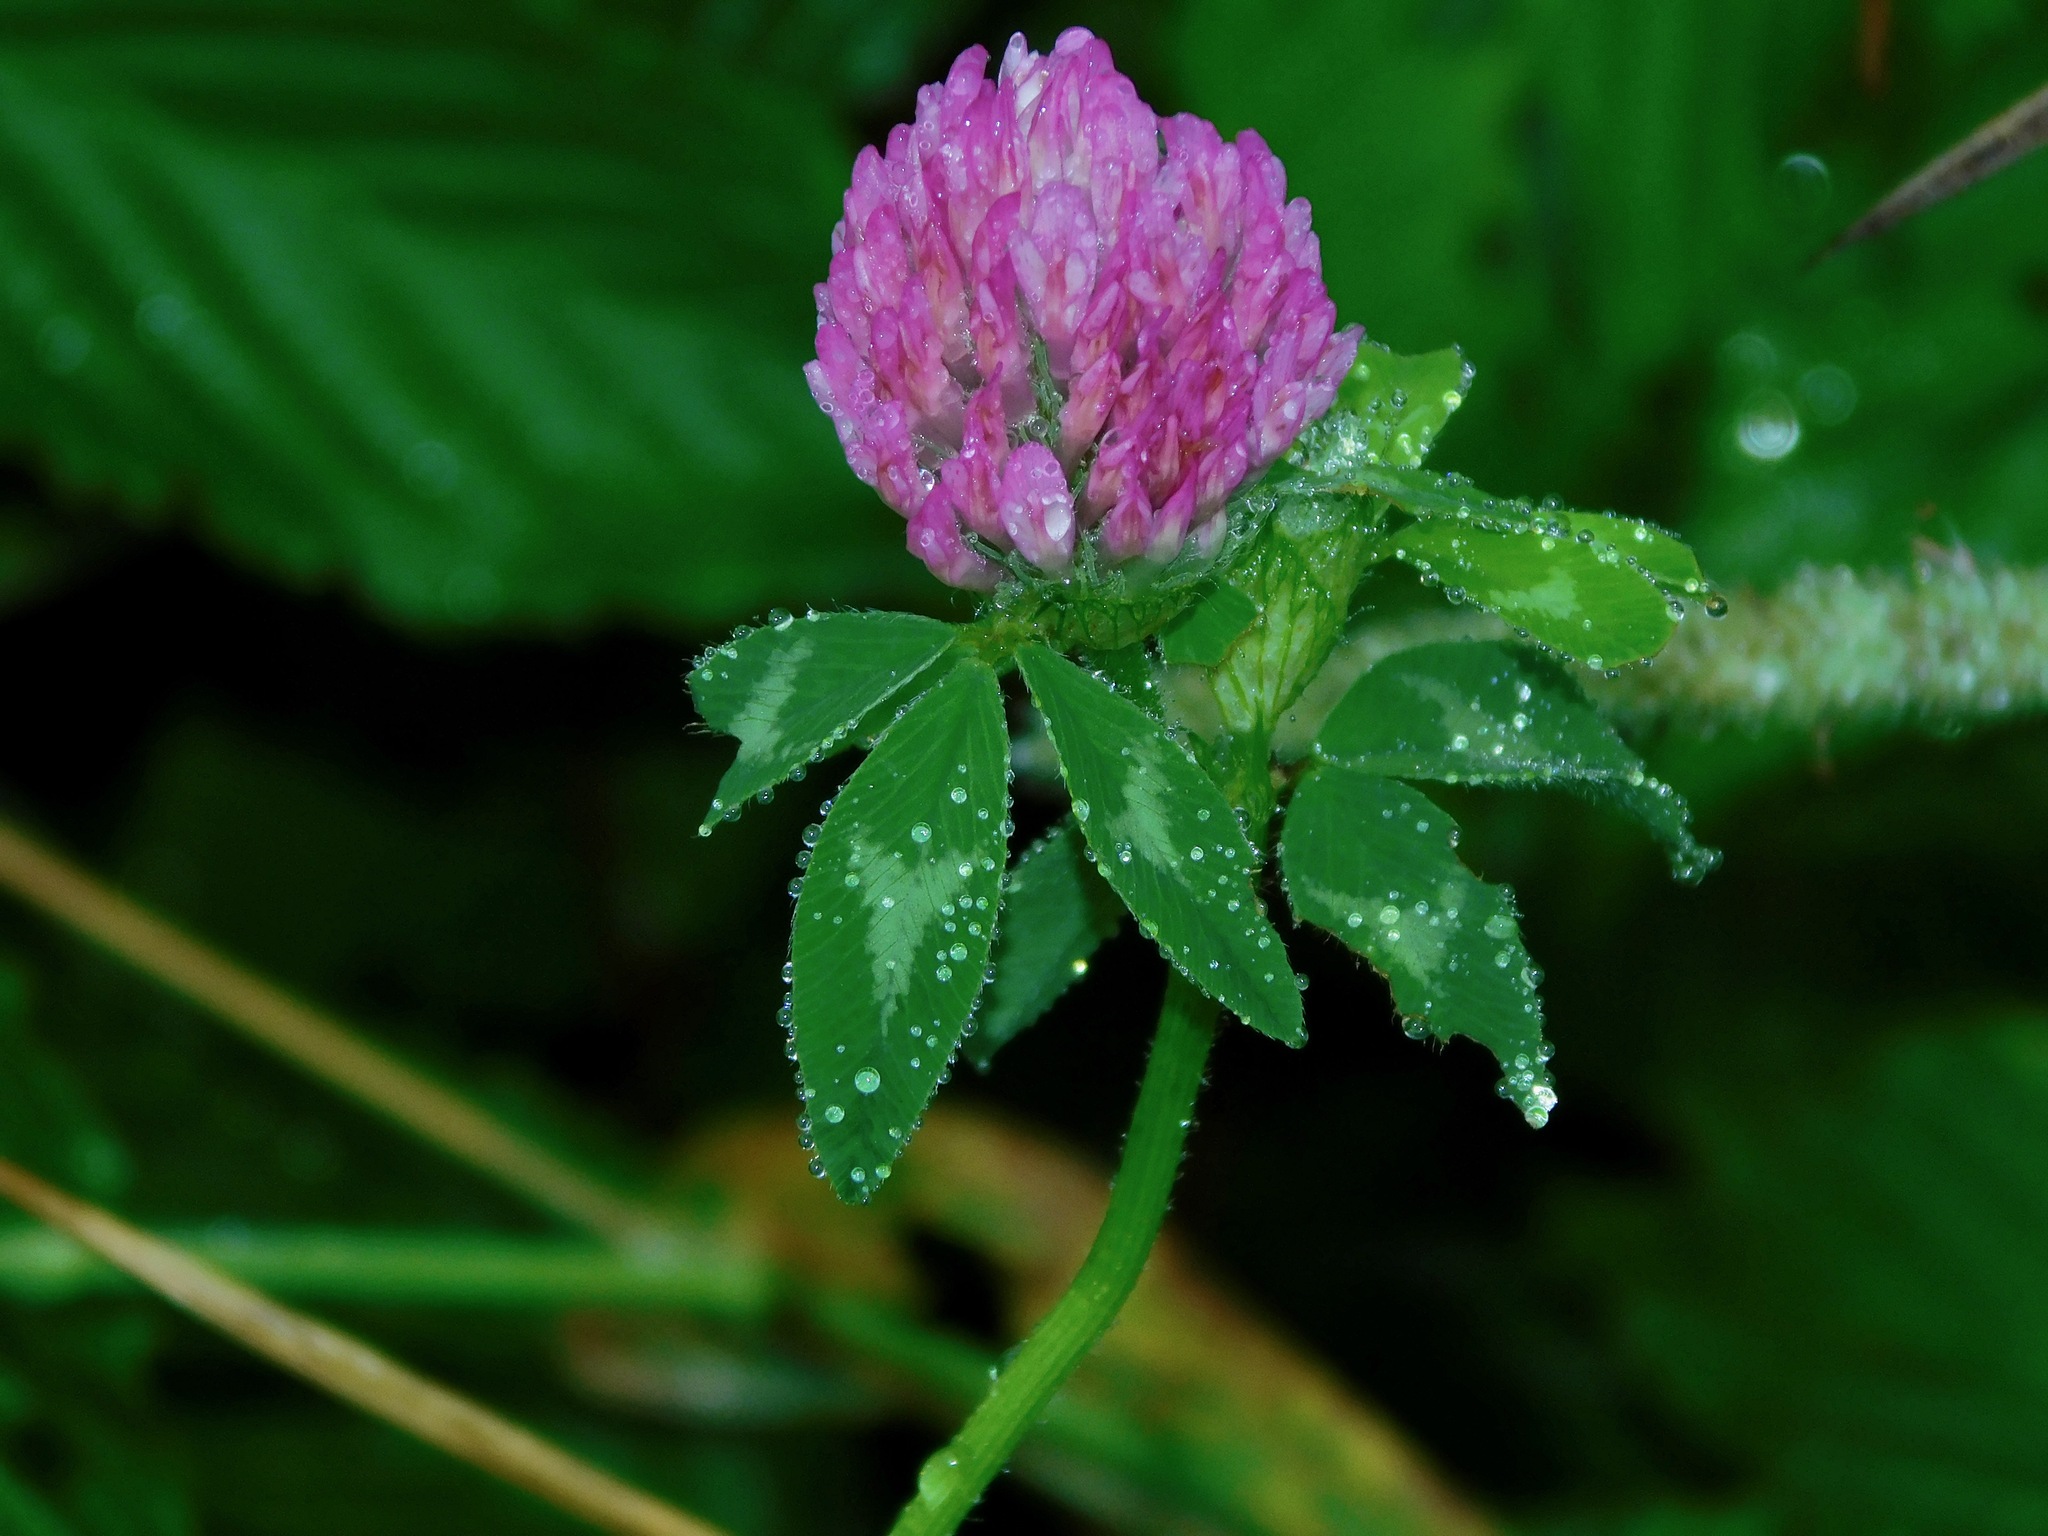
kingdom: Plantae
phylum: Tracheophyta
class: Magnoliopsida
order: Fabales
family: Fabaceae
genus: Trifolium
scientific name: Trifolium pratense
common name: Red clover
